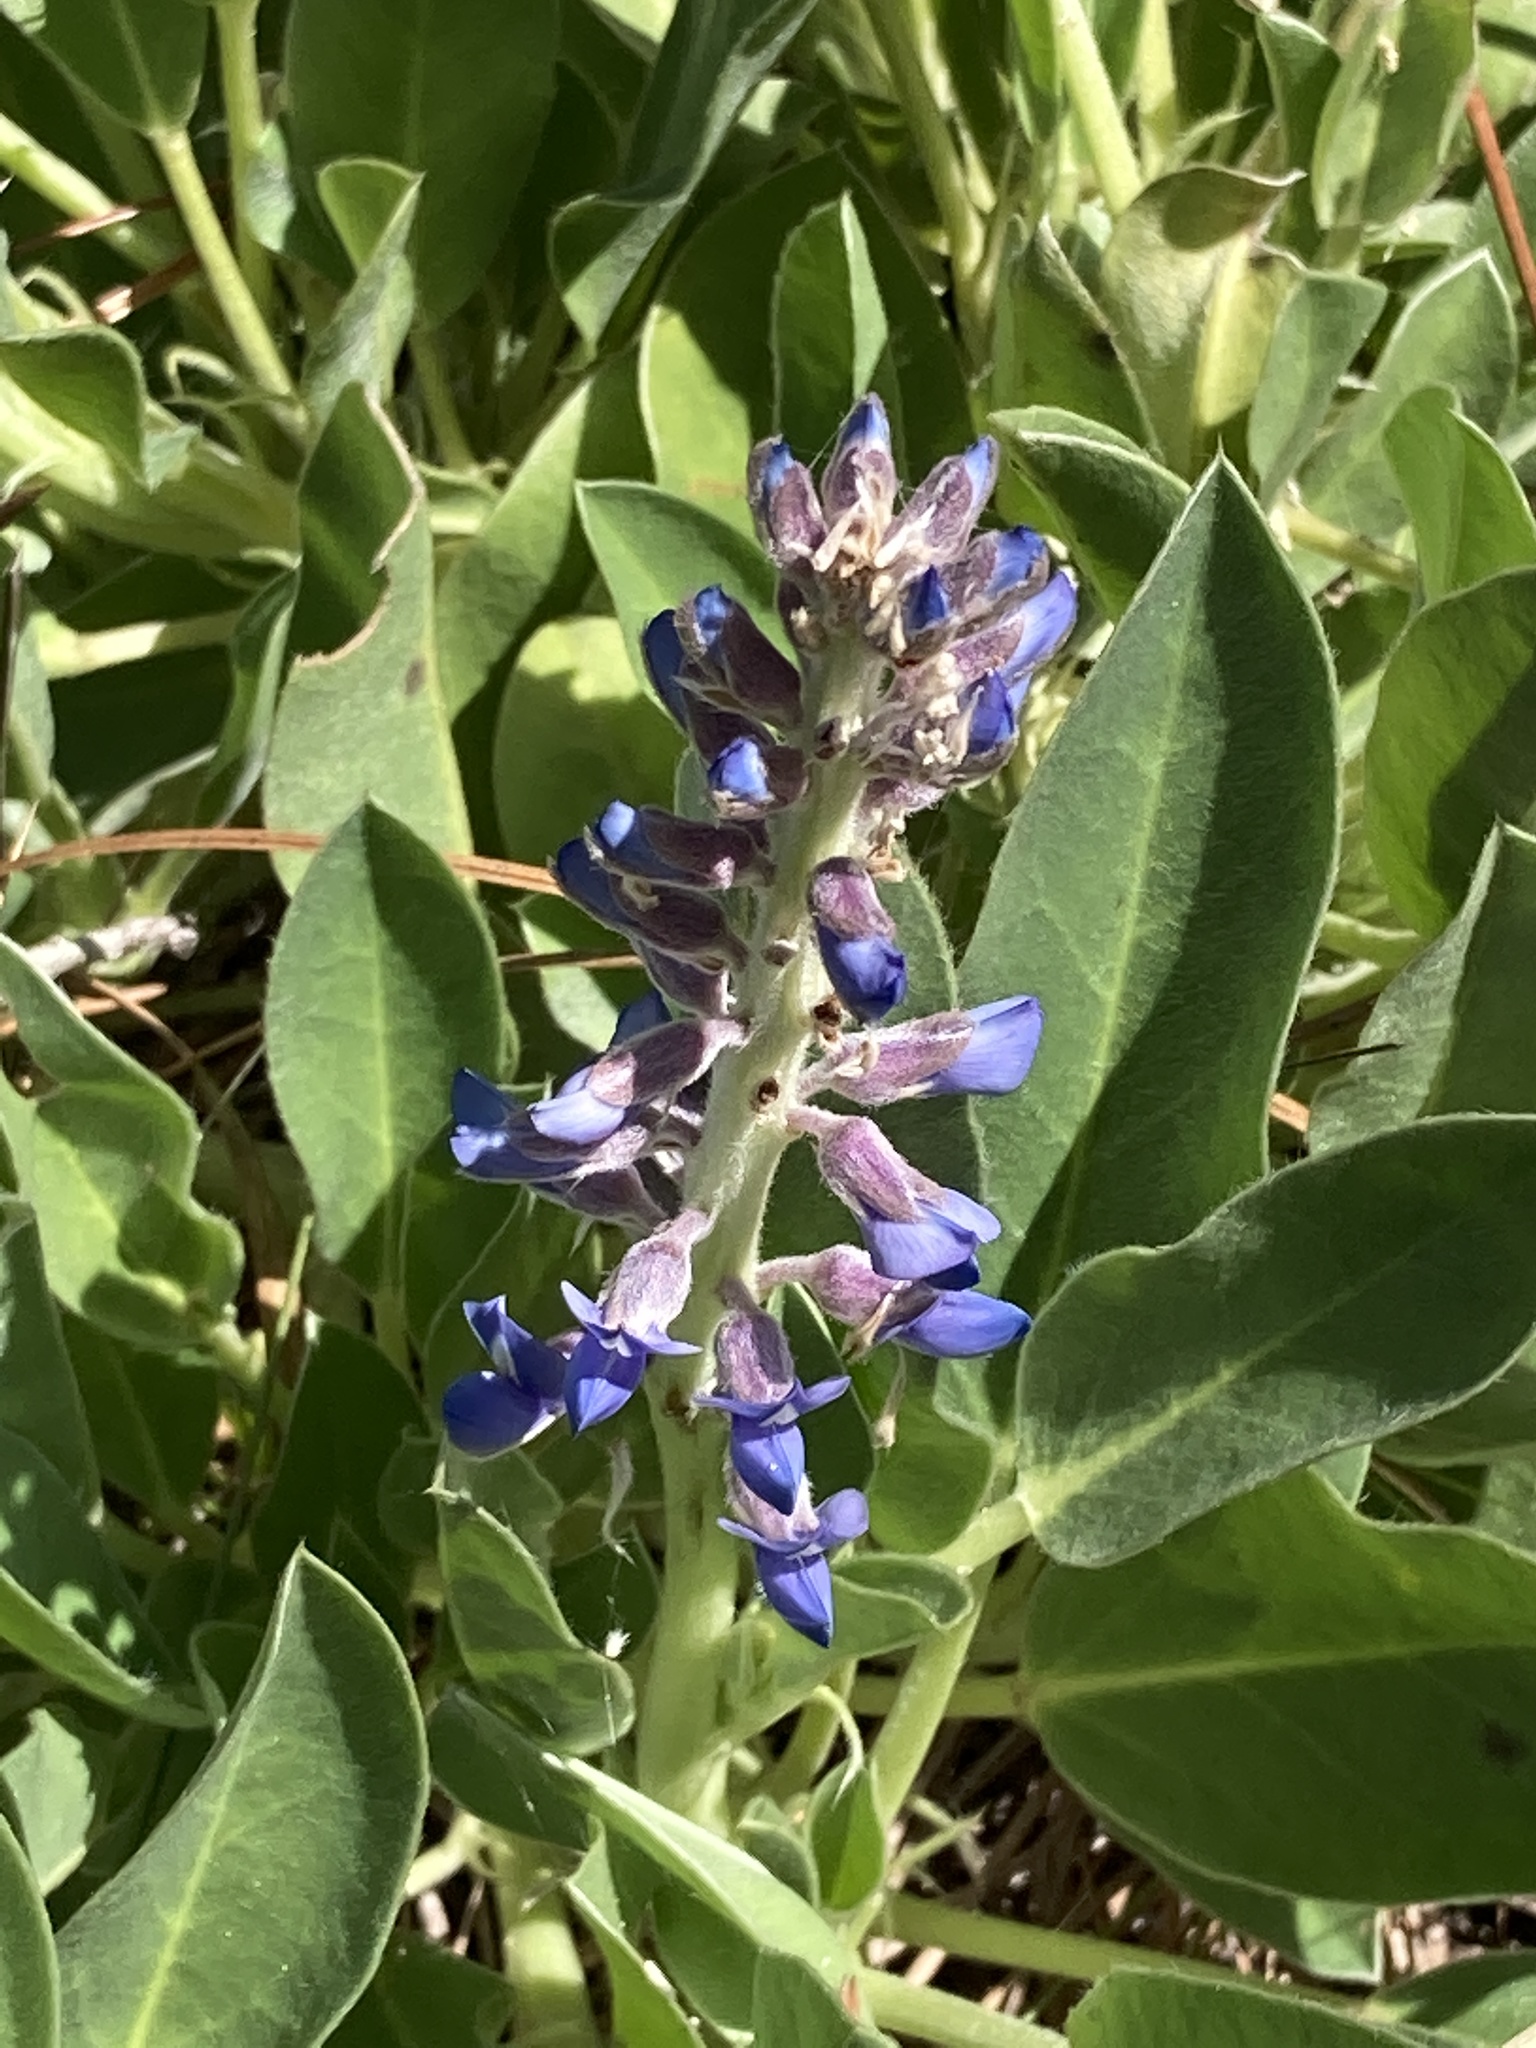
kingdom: Plantae
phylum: Tracheophyta
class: Magnoliopsida
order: Fabales
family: Fabaceae
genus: Lupinus
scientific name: Lupinus
